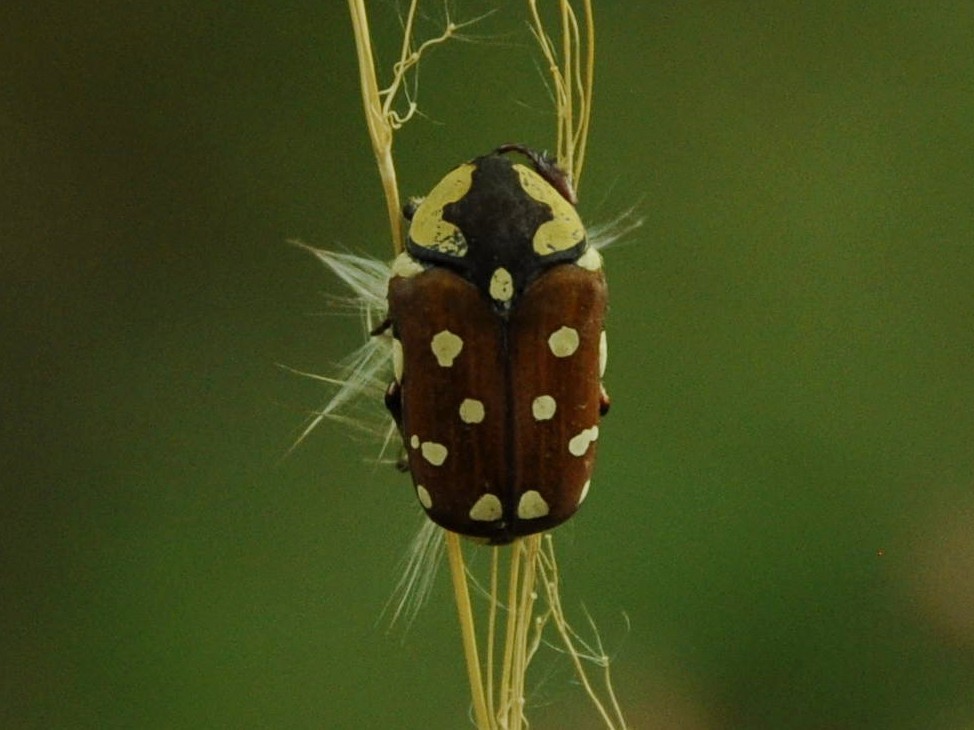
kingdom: Animalia
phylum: Arthropoda
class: Insecta
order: Coleoptera
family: Scarabaeidae
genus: Clinteria
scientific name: Clinteria klugi
